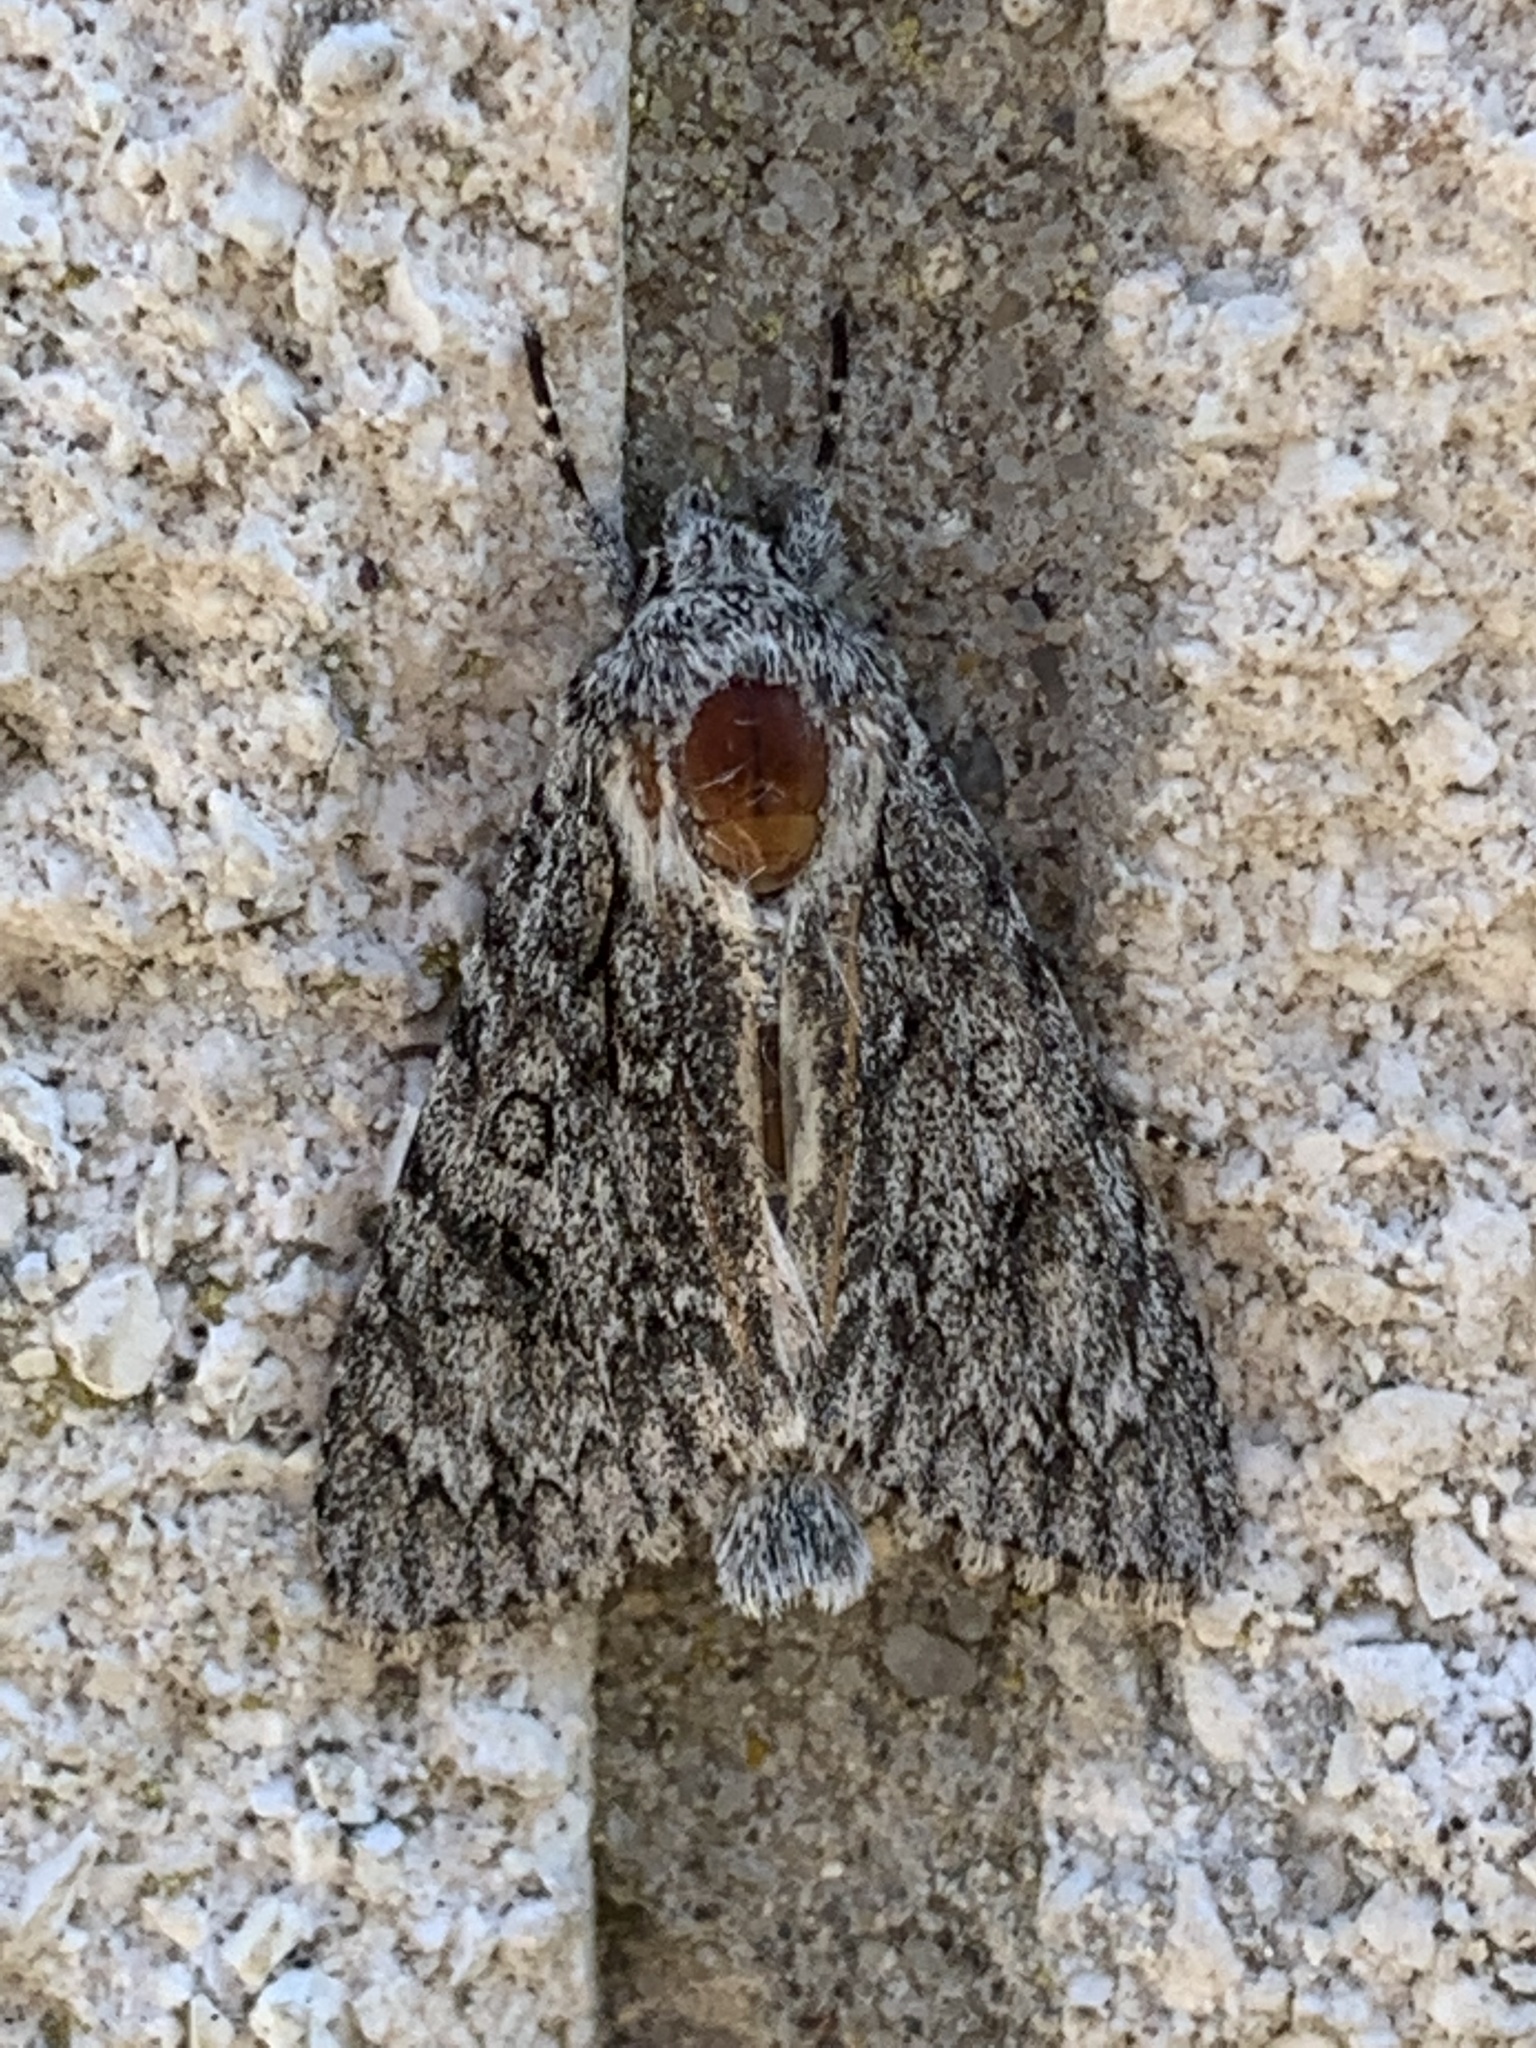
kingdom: Animalia
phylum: Arthropoda
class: Insecta
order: Lepidoptera
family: Noctuidae
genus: Acronicta
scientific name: Acronicta aceris
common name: Sycamore
